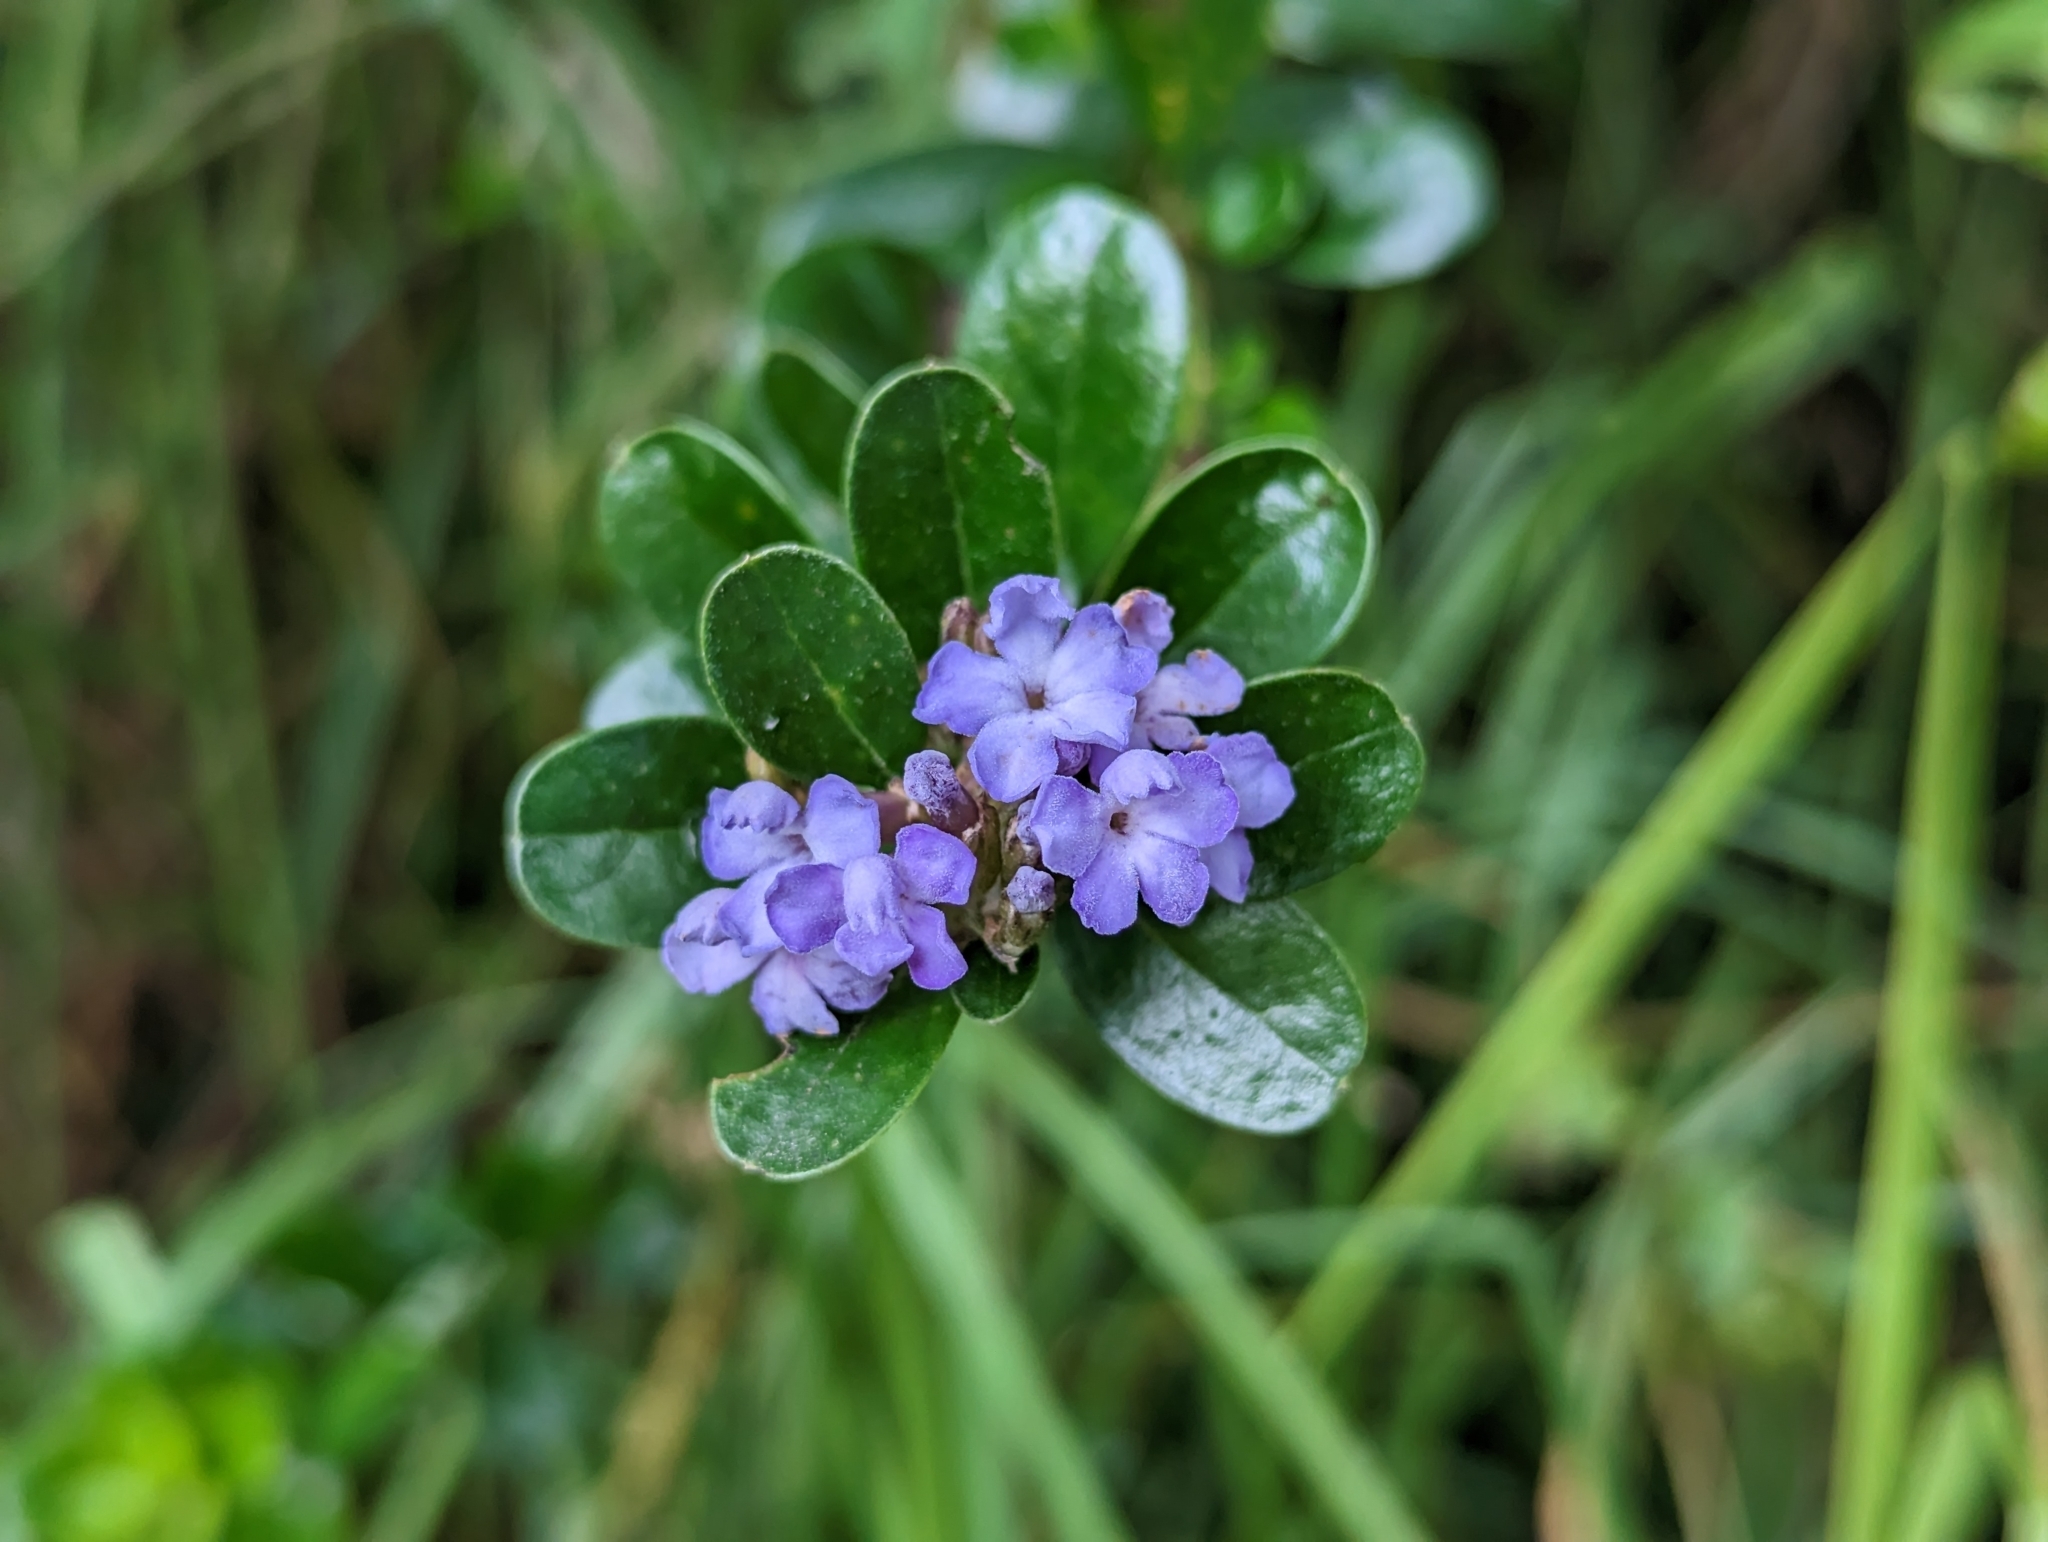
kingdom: Plantae
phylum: Tracheophyta
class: Magnoliopsida
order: Lamiales
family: Verbenaceae
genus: Duranta
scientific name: Duranta triacantha
